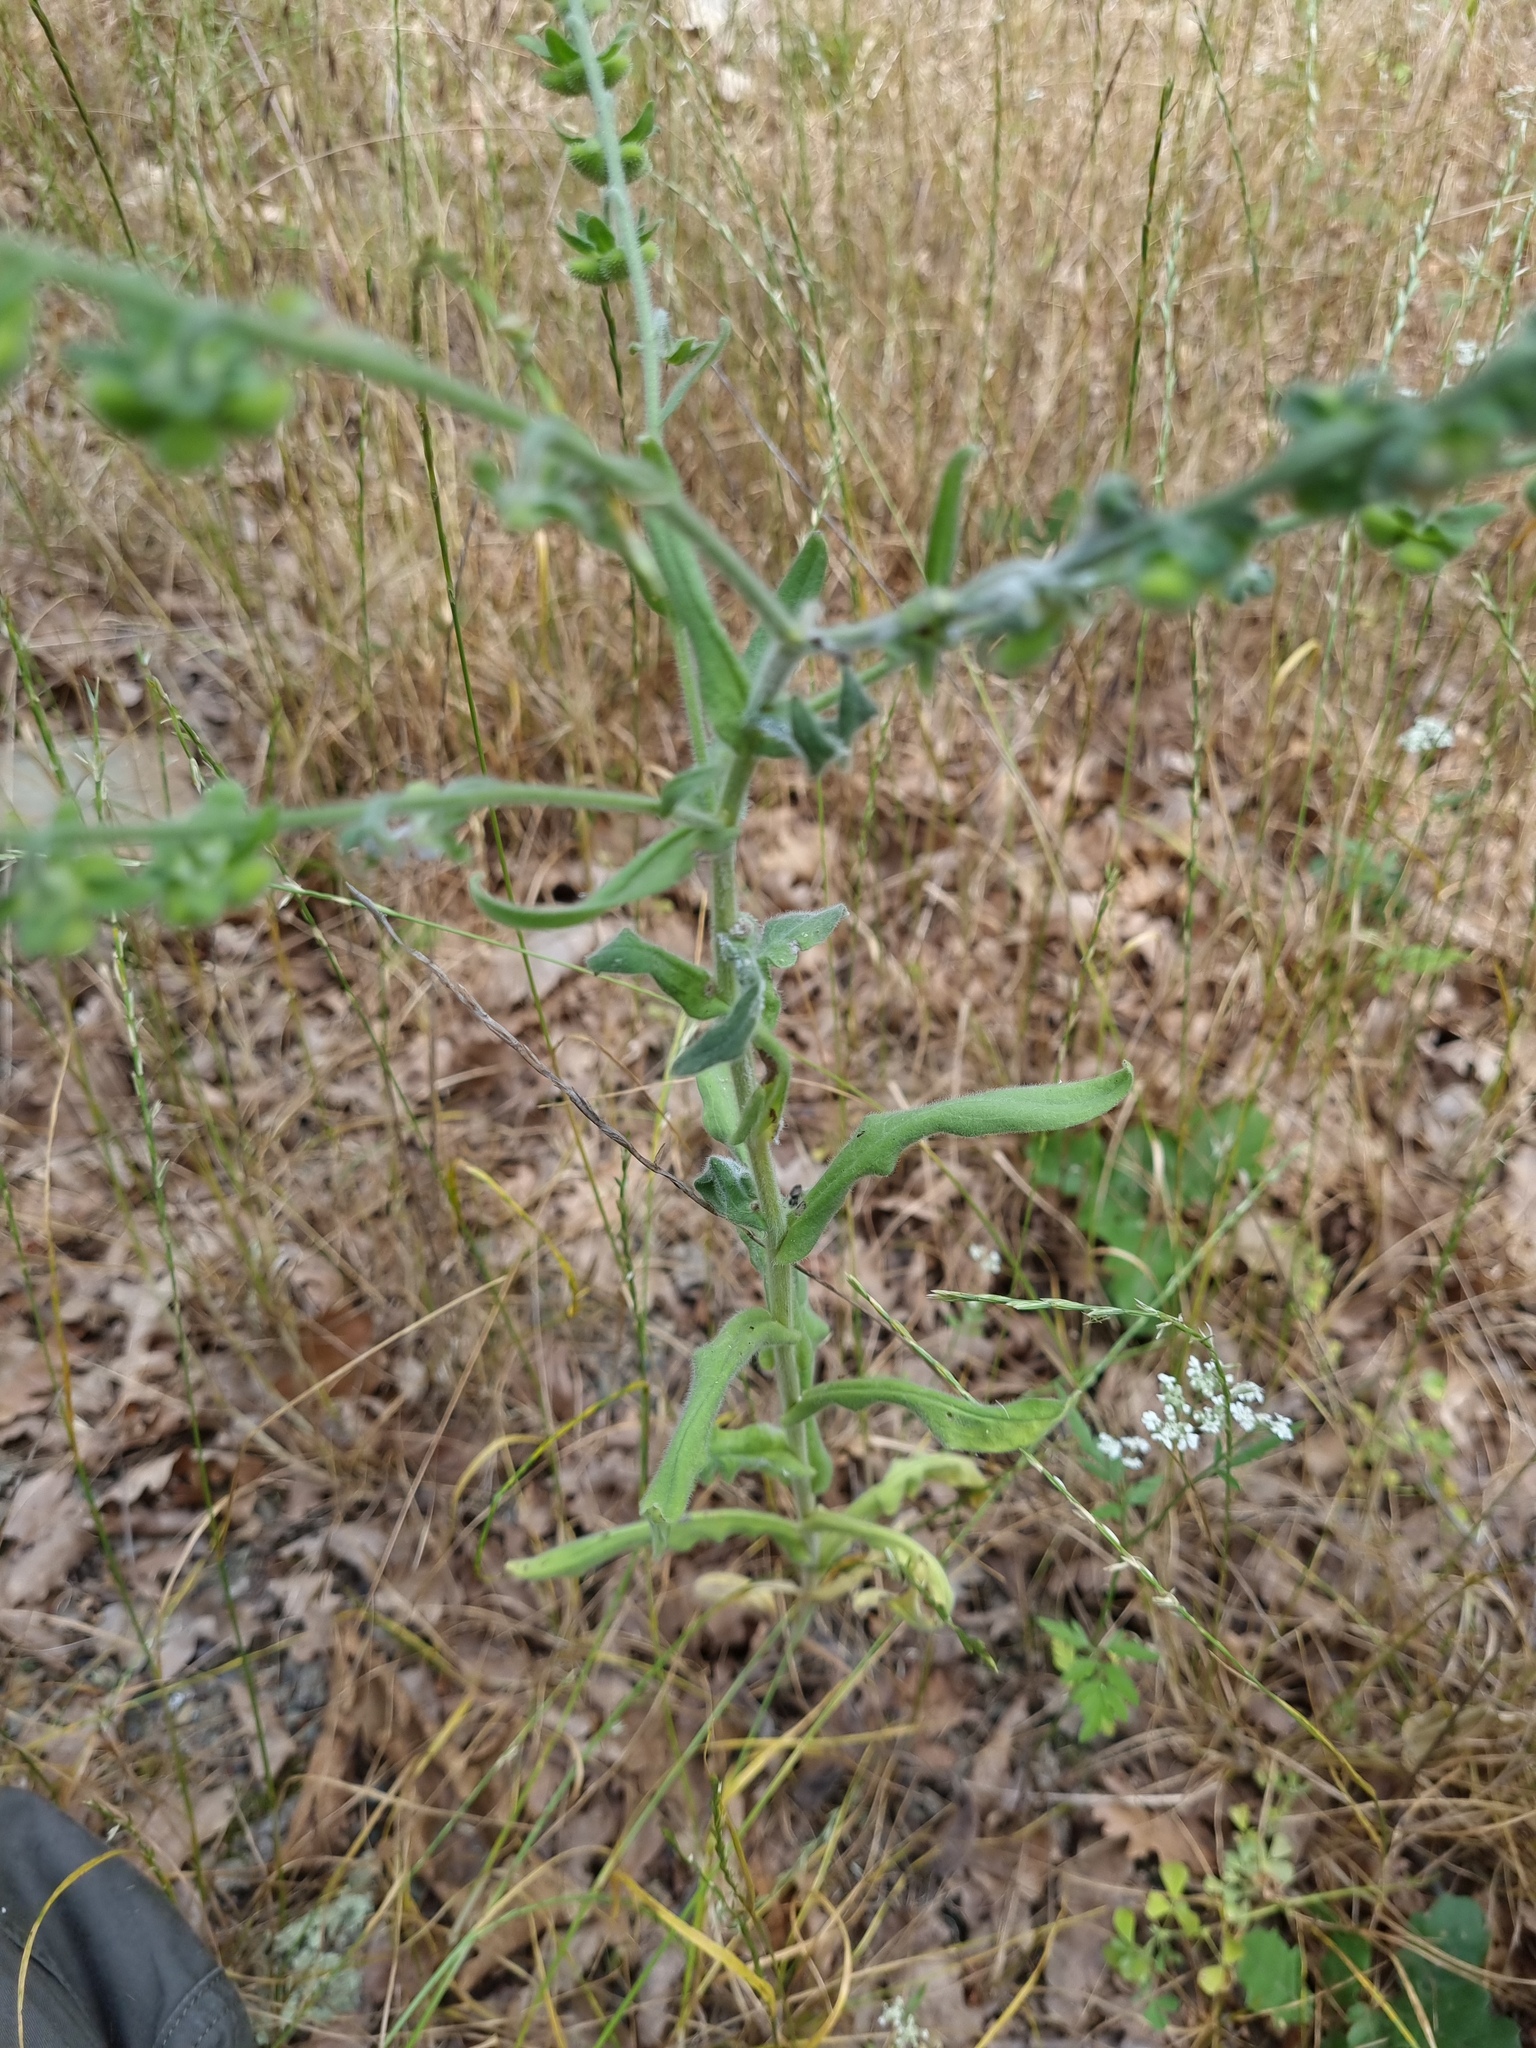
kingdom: Plantae
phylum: Tracheophyta
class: Magnoliopsida
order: Boraginales
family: Boraginaceae
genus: Cynoglossum
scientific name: Cynoglossum creticum
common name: Blue hound's tongue
